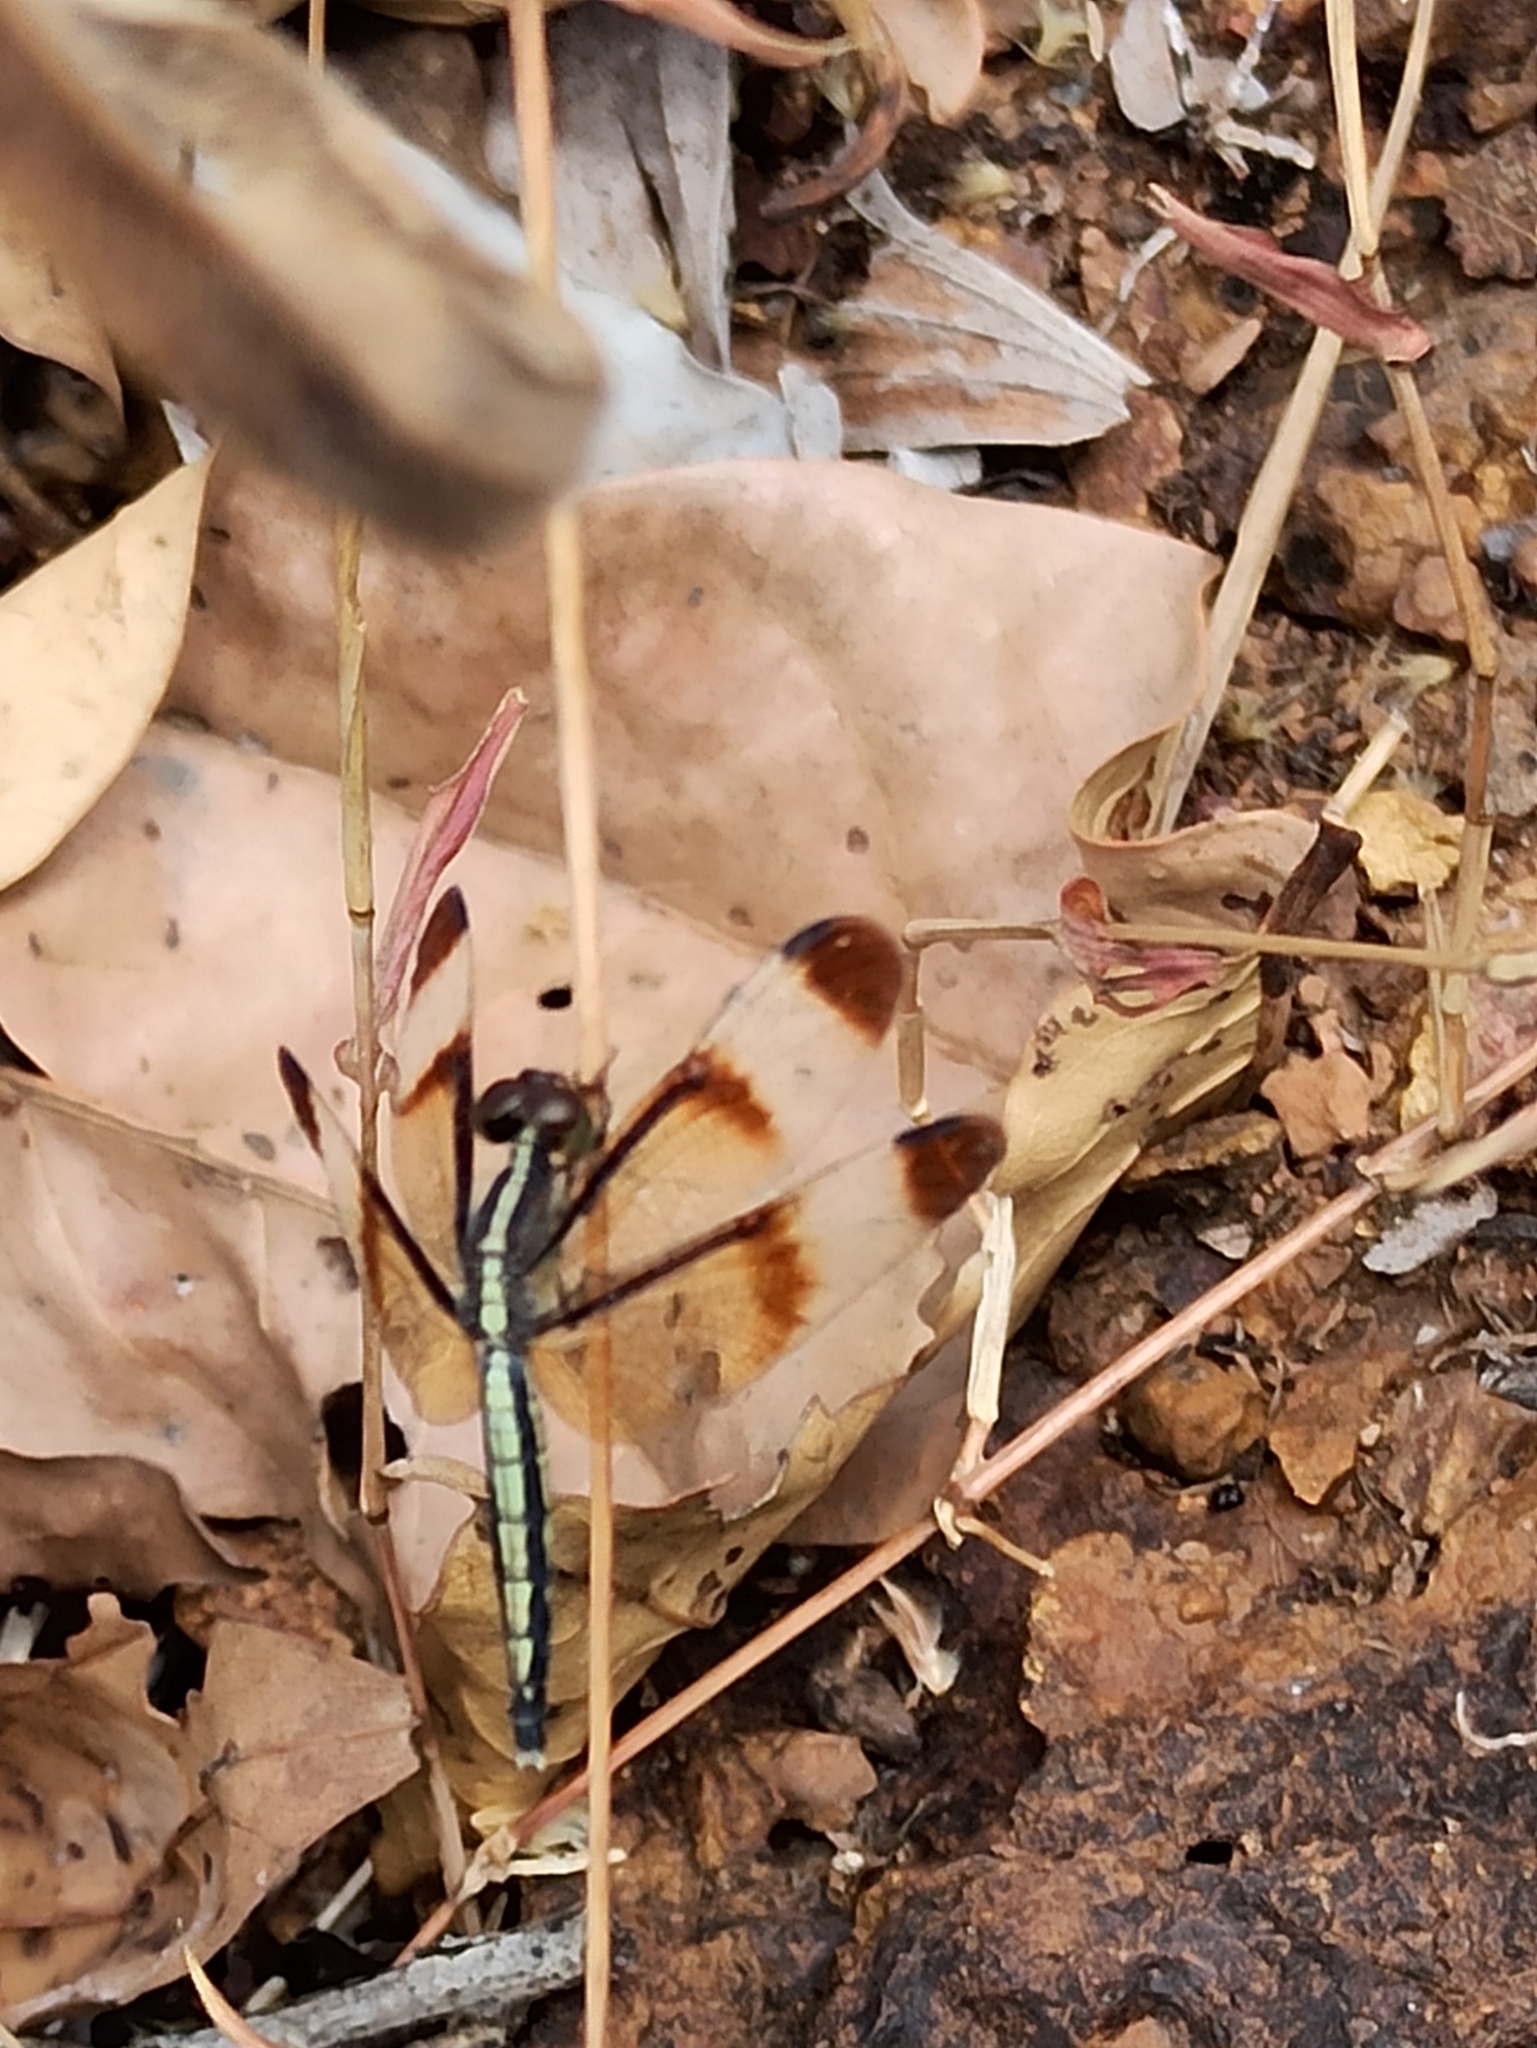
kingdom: Animalia
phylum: Arthropoda
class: Insecta
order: Odonata
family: Libellulidae
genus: Neurothemis
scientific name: Neurothemis tullia
